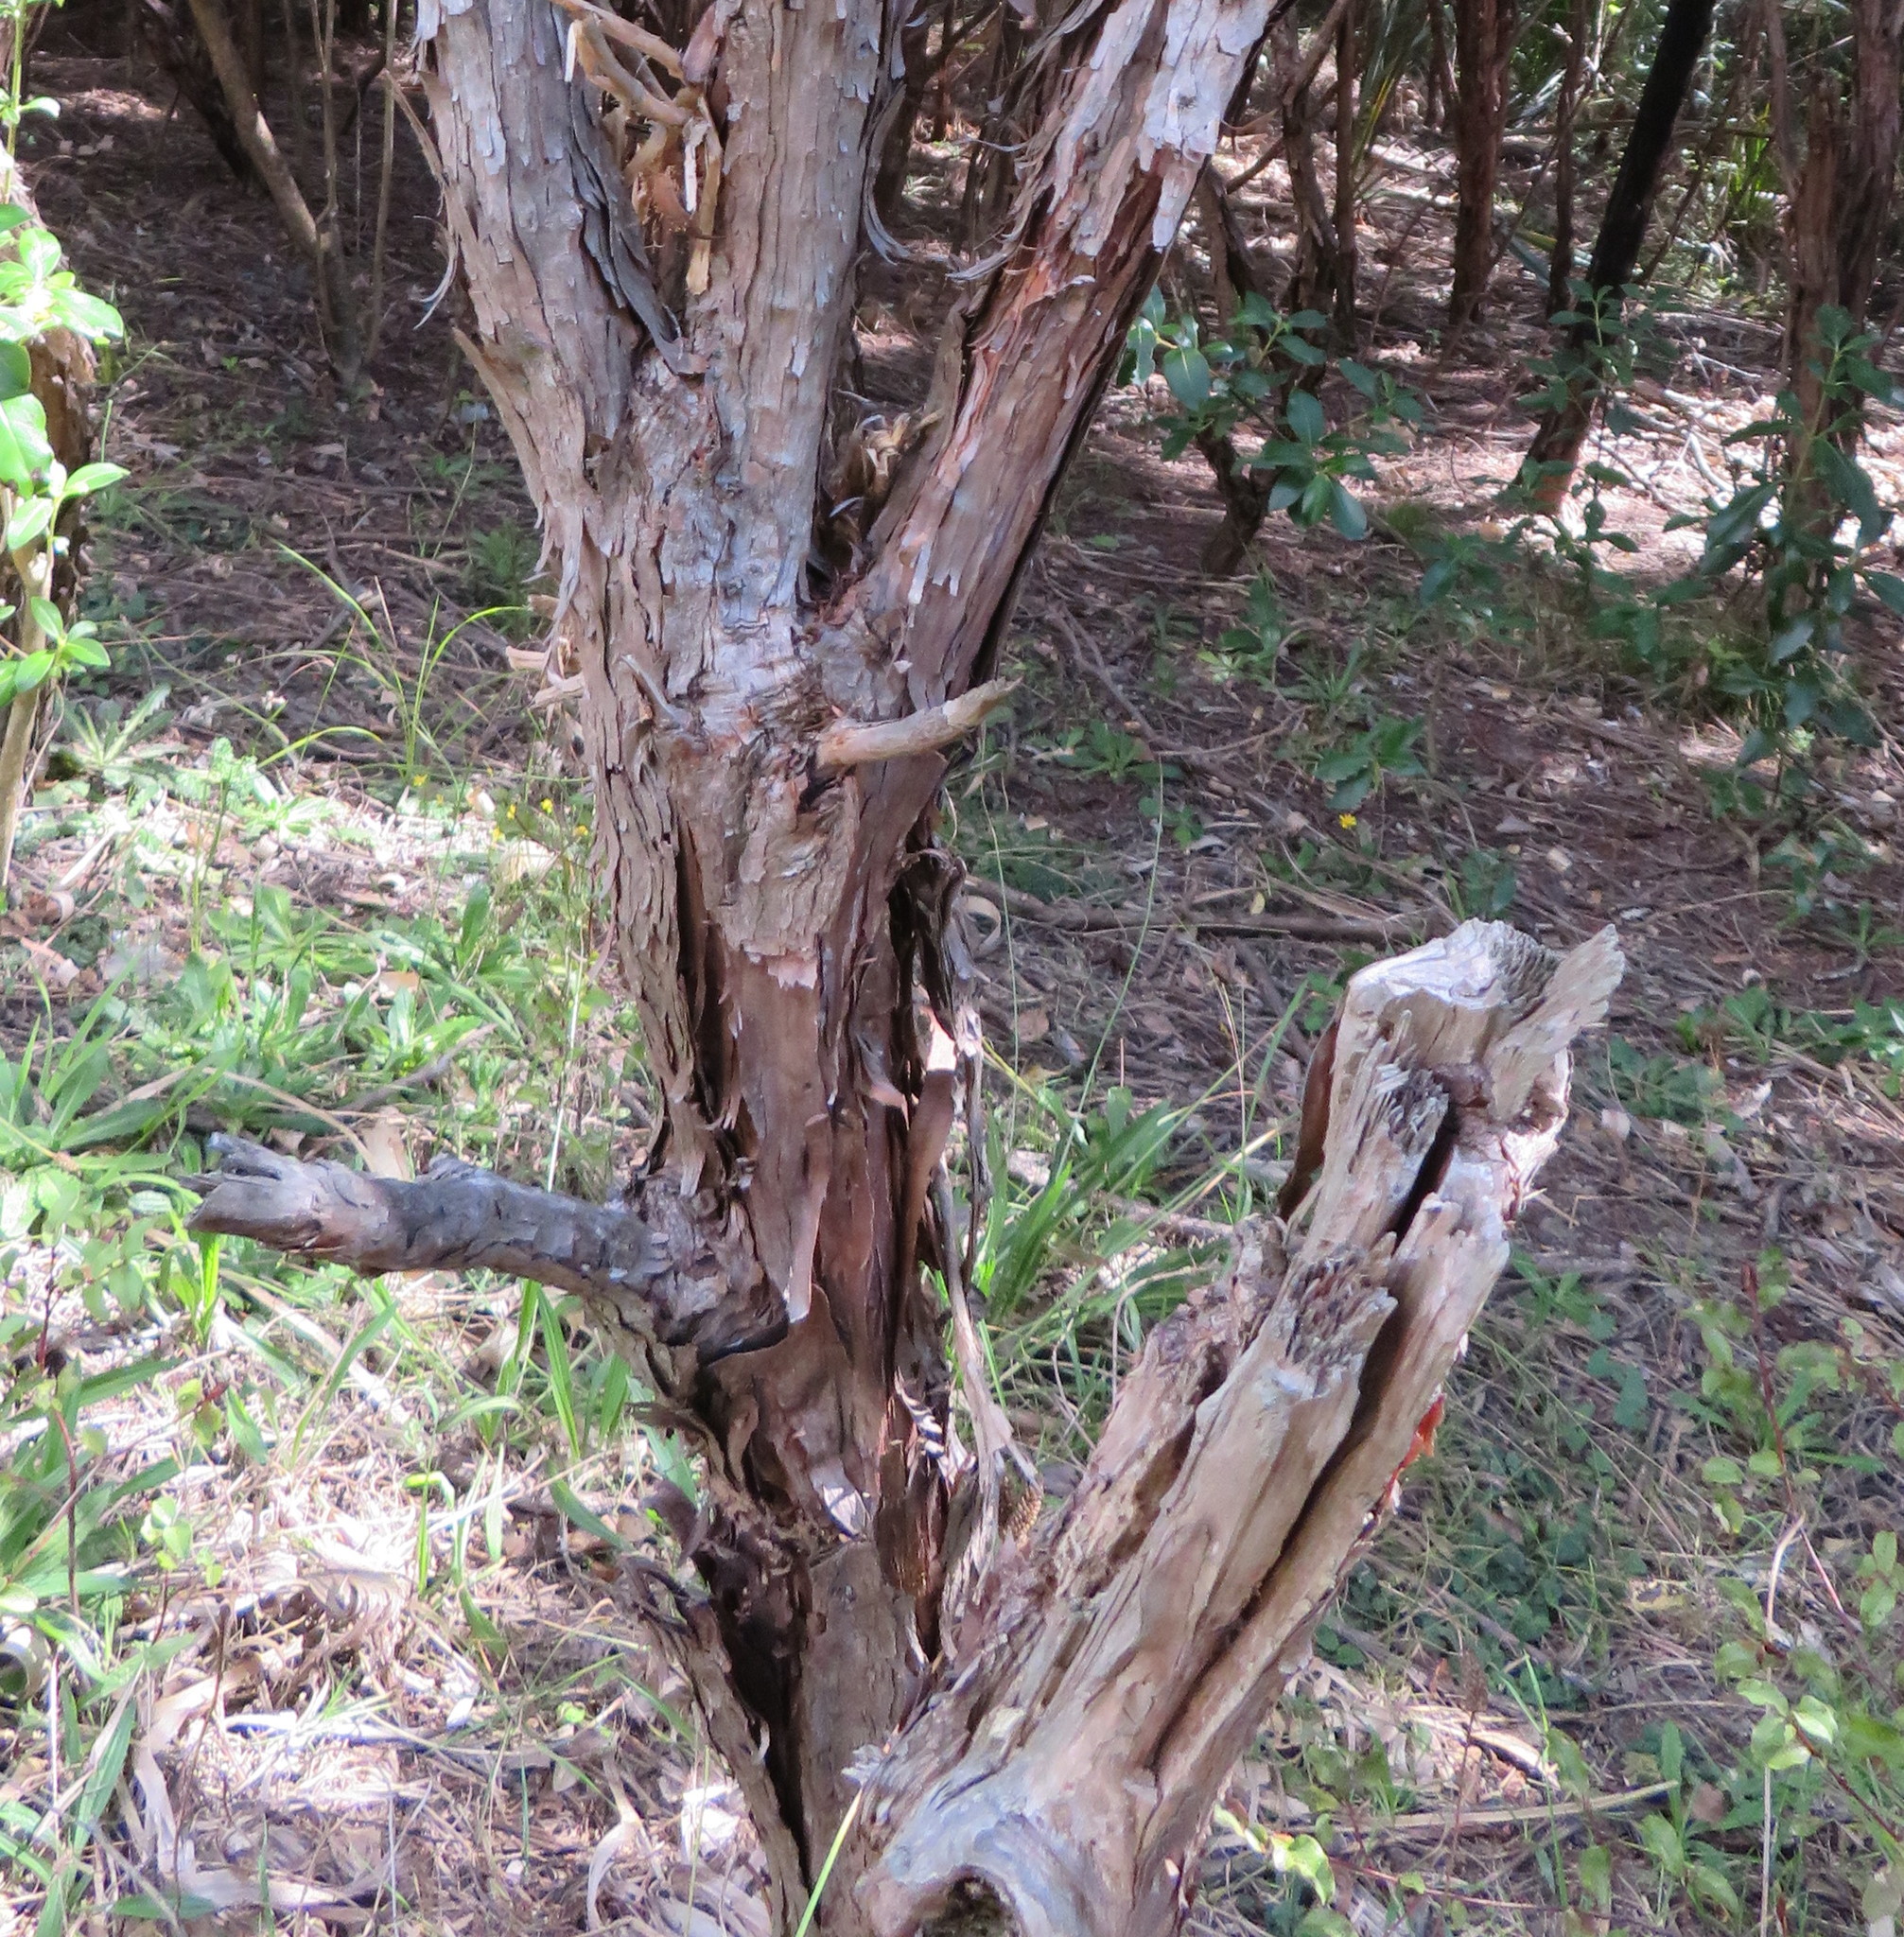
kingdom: Plantae
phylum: Tracheophyta
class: Magnoliopsida
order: Myrtales
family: Myrtaceae
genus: Leptospermum
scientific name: Leptospermum scoparium
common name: Broom tea-tree
